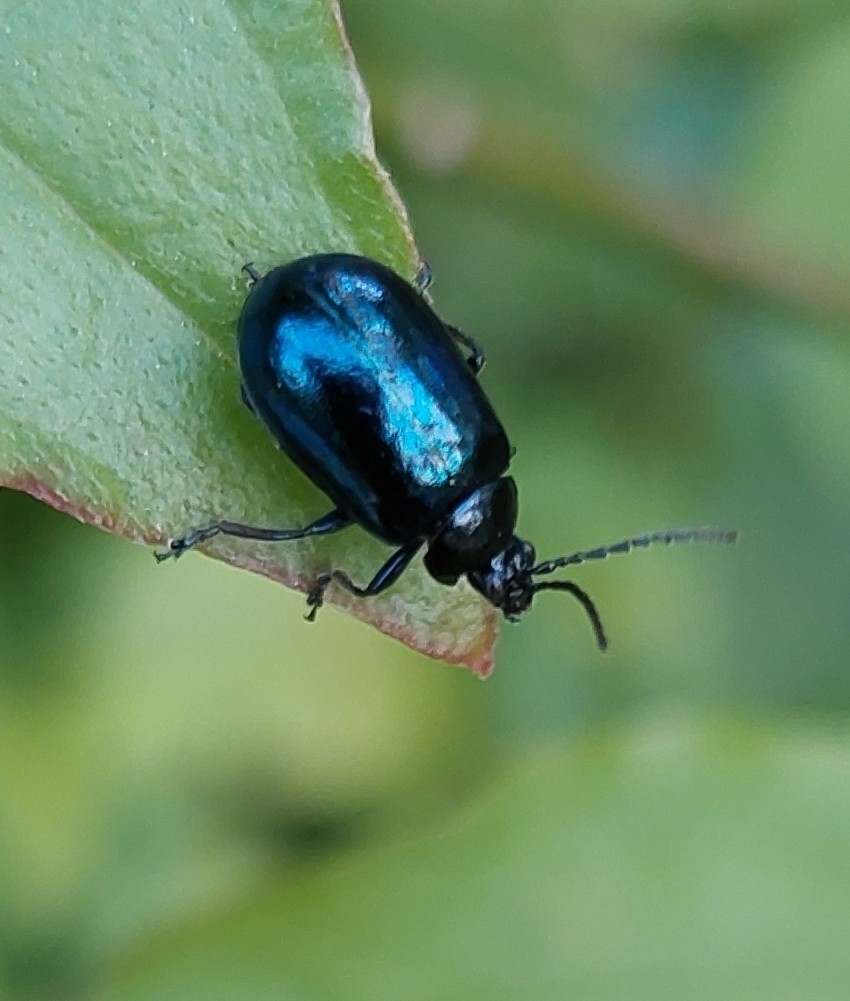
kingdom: Animalia
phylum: Arthropoda
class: Insecta
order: Coleoptera
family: Chrysomelidae
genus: Agelastica
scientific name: Agelastica alni
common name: Alder leaf beetle
